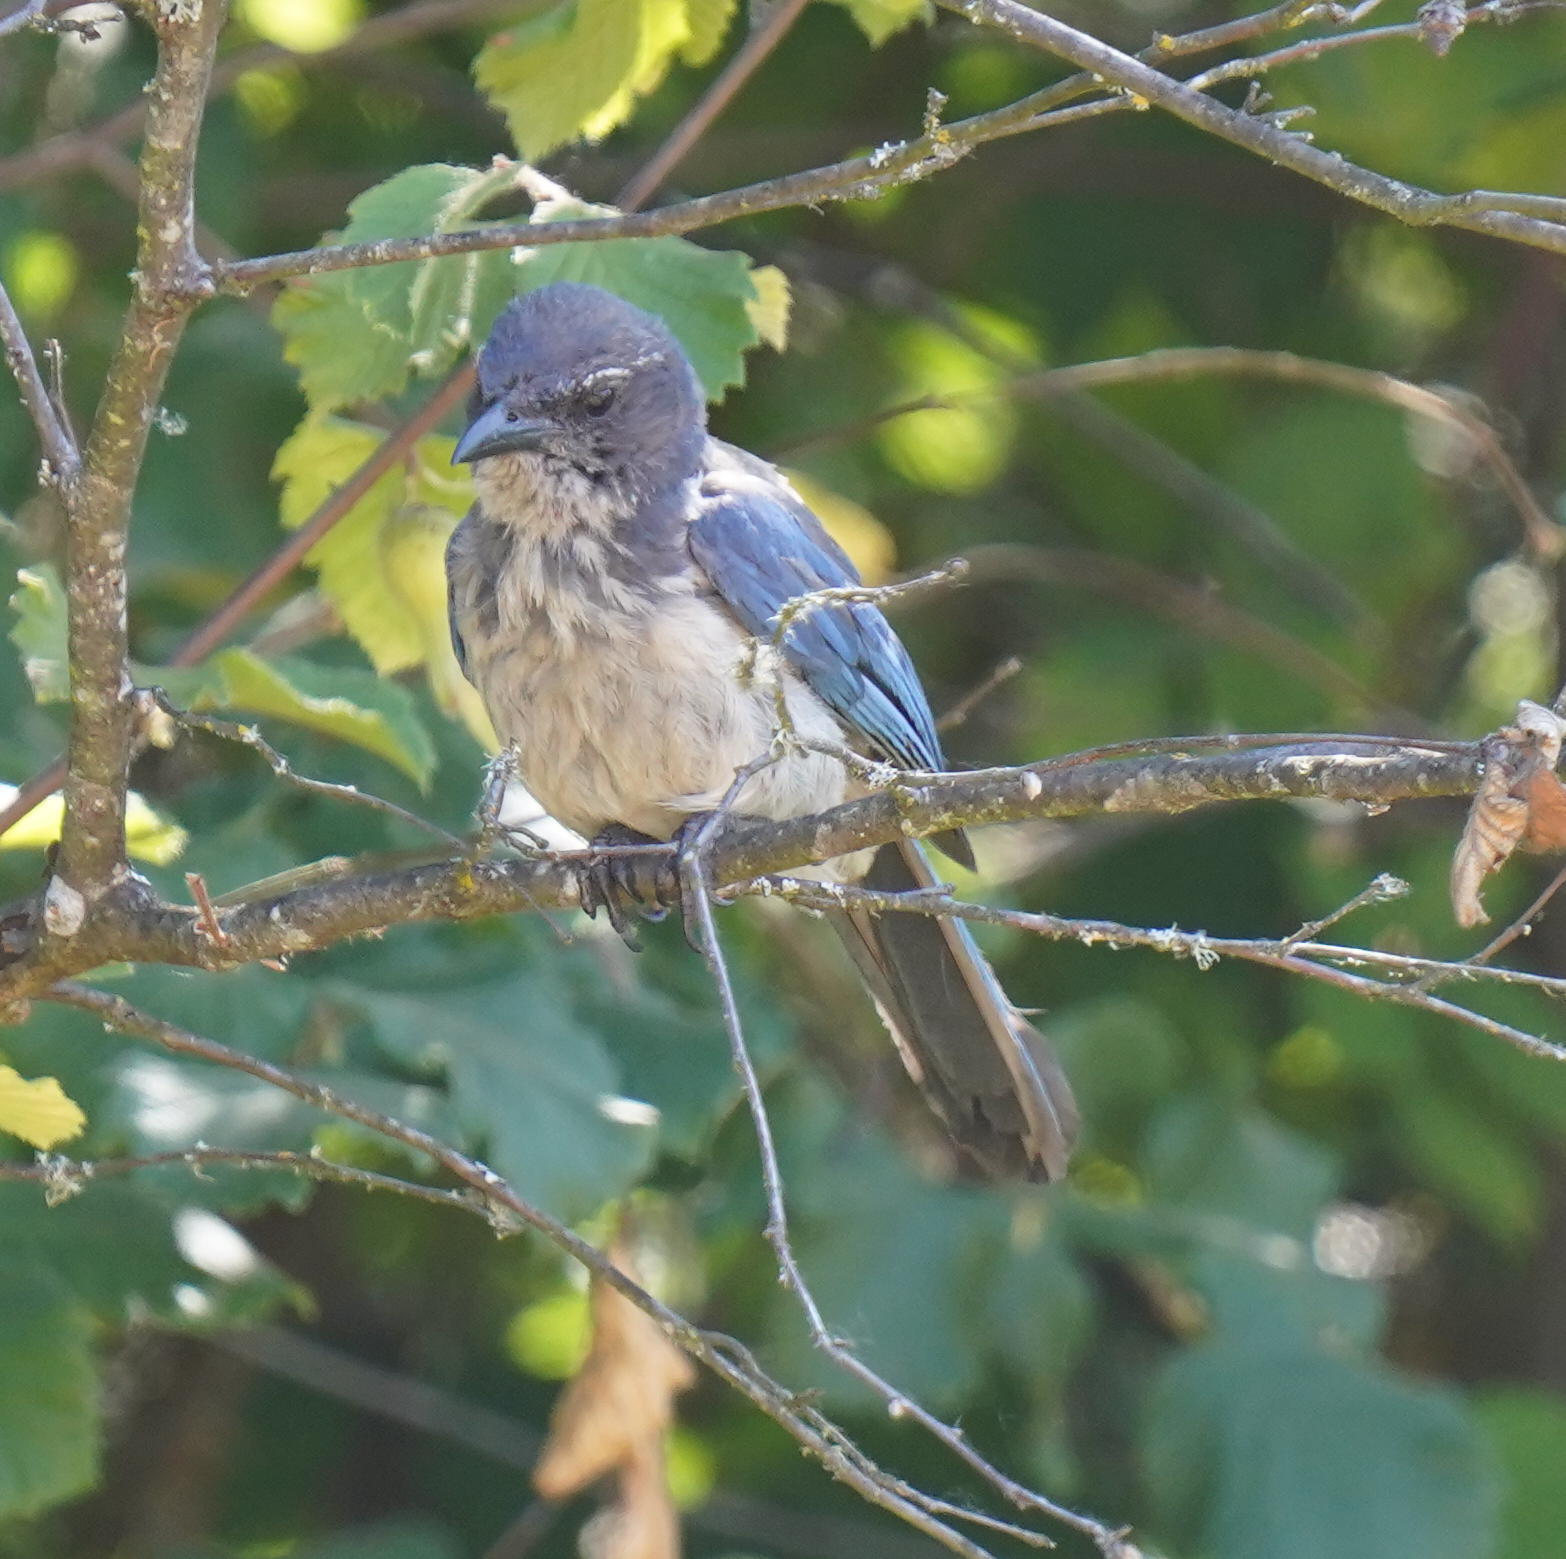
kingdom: Animalia
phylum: Chordata
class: Aves
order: Passeriformes
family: Corvidae
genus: Aphelocoma
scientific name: Aphelocoma californica
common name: California scrub-jay
